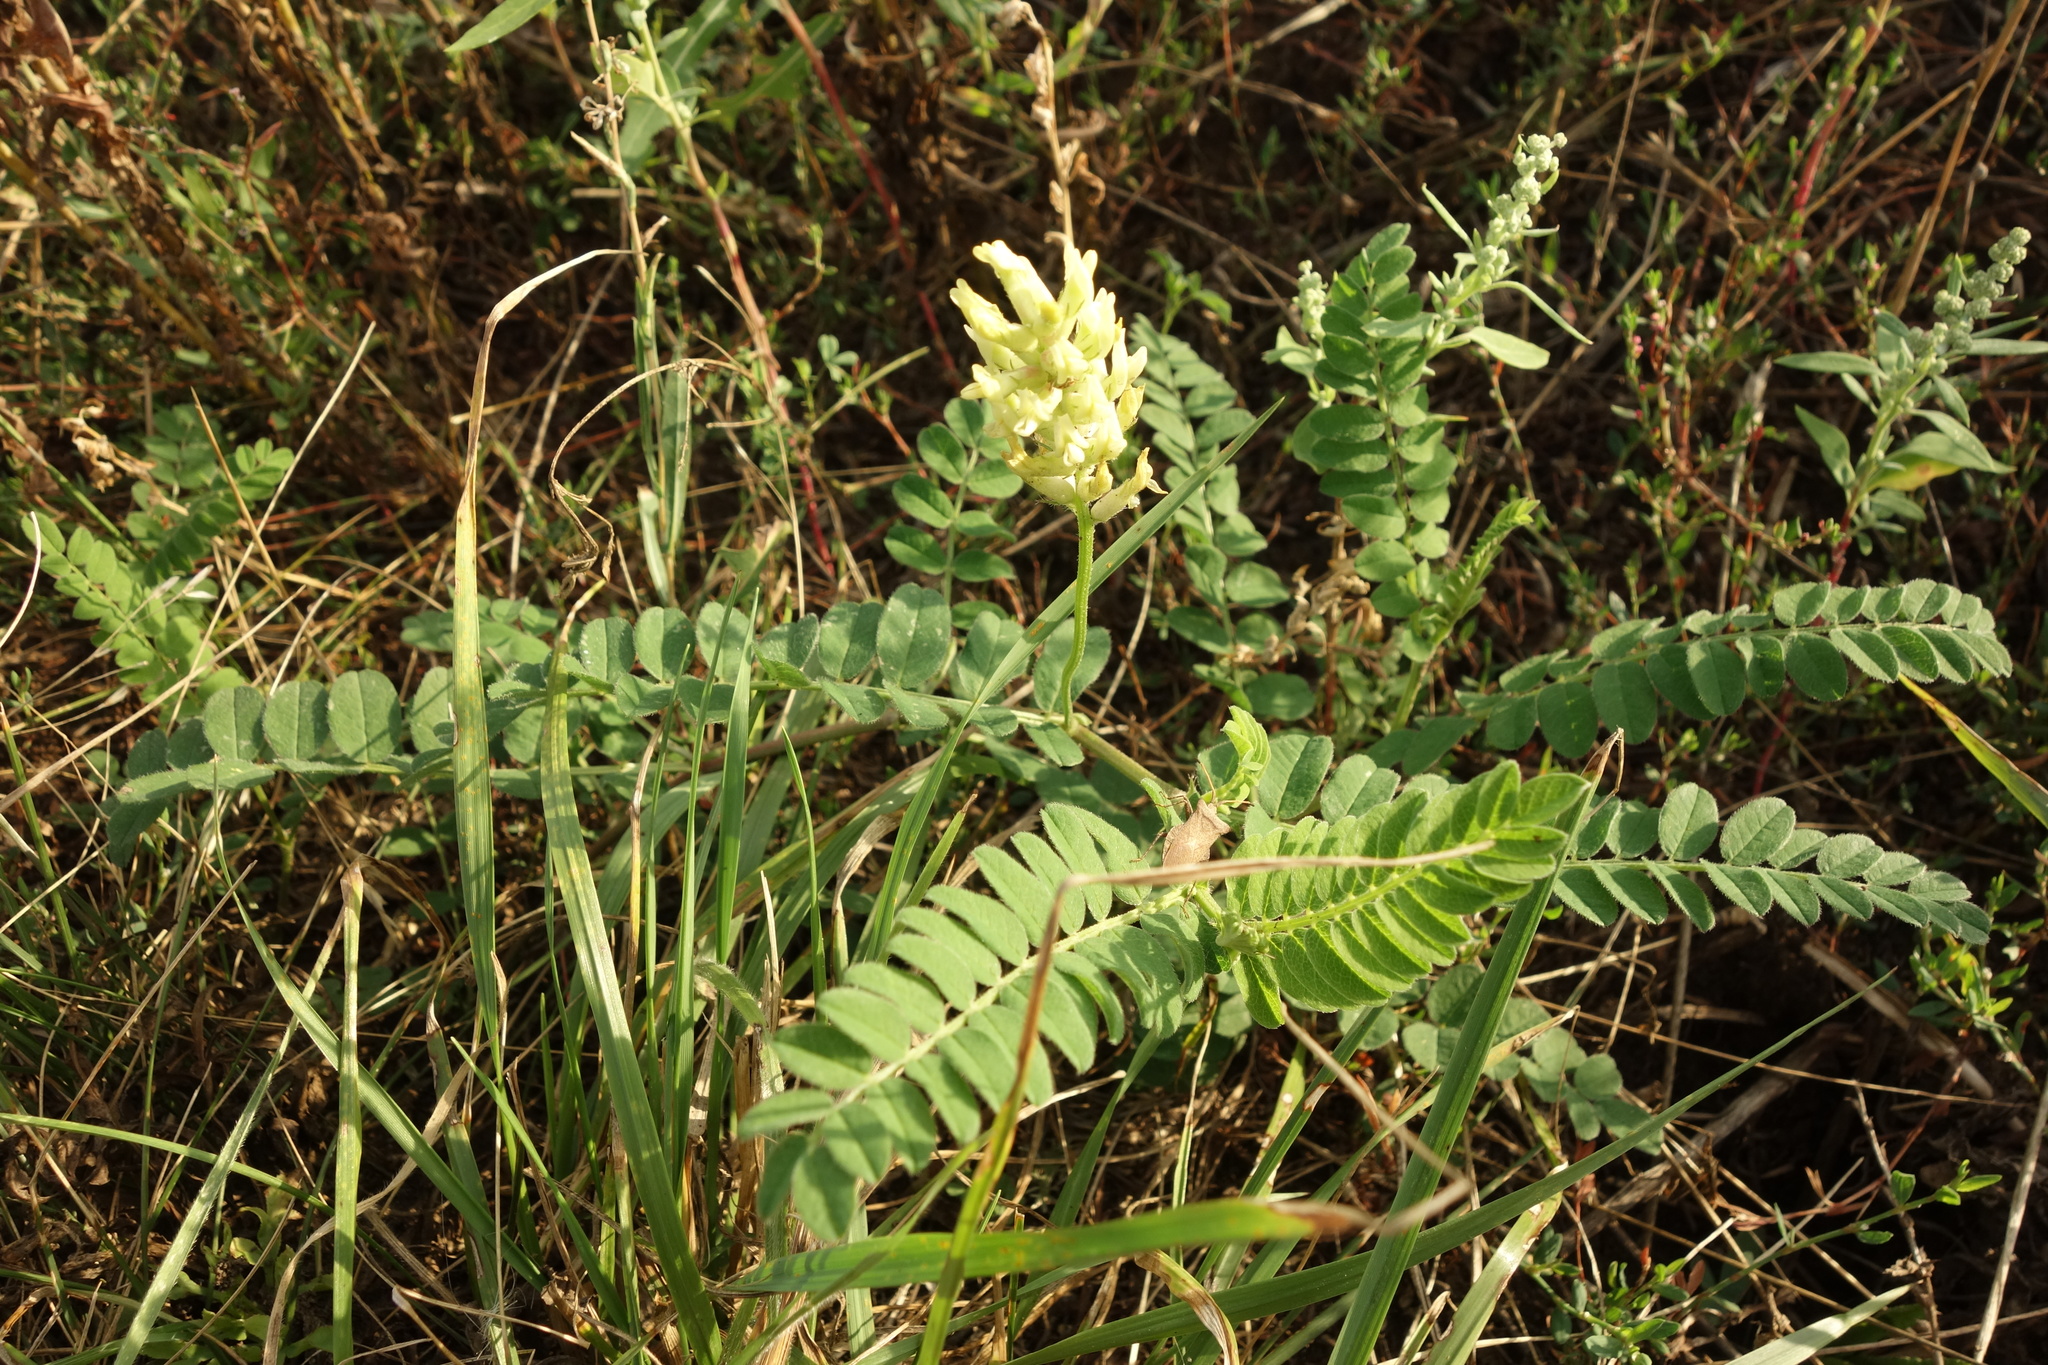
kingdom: Plantae
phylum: Tracheophyta
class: Magnoliopsida
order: Fabales
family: Fabaceae
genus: Astragalus
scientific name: Astragalus cicer
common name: Chick-pea milk-vetch
